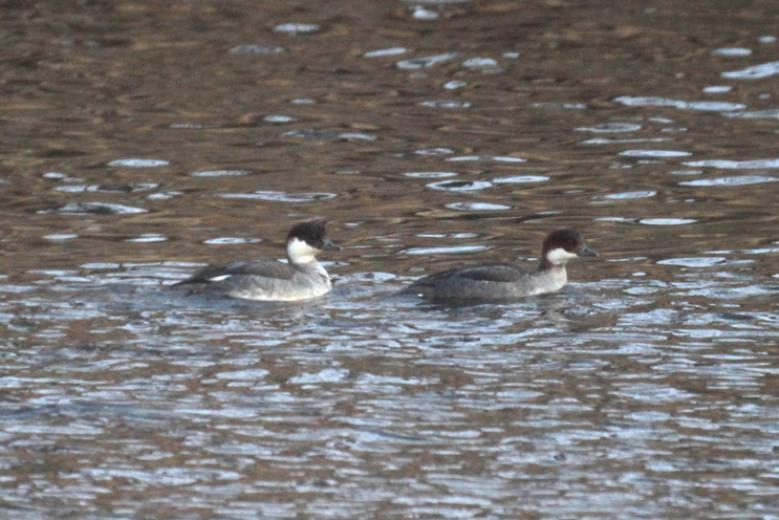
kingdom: Animalia
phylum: Chordata
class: Aves
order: Anseriformes
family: Anatidae
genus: Mergellus
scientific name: Mergellus albellus
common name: Smew
